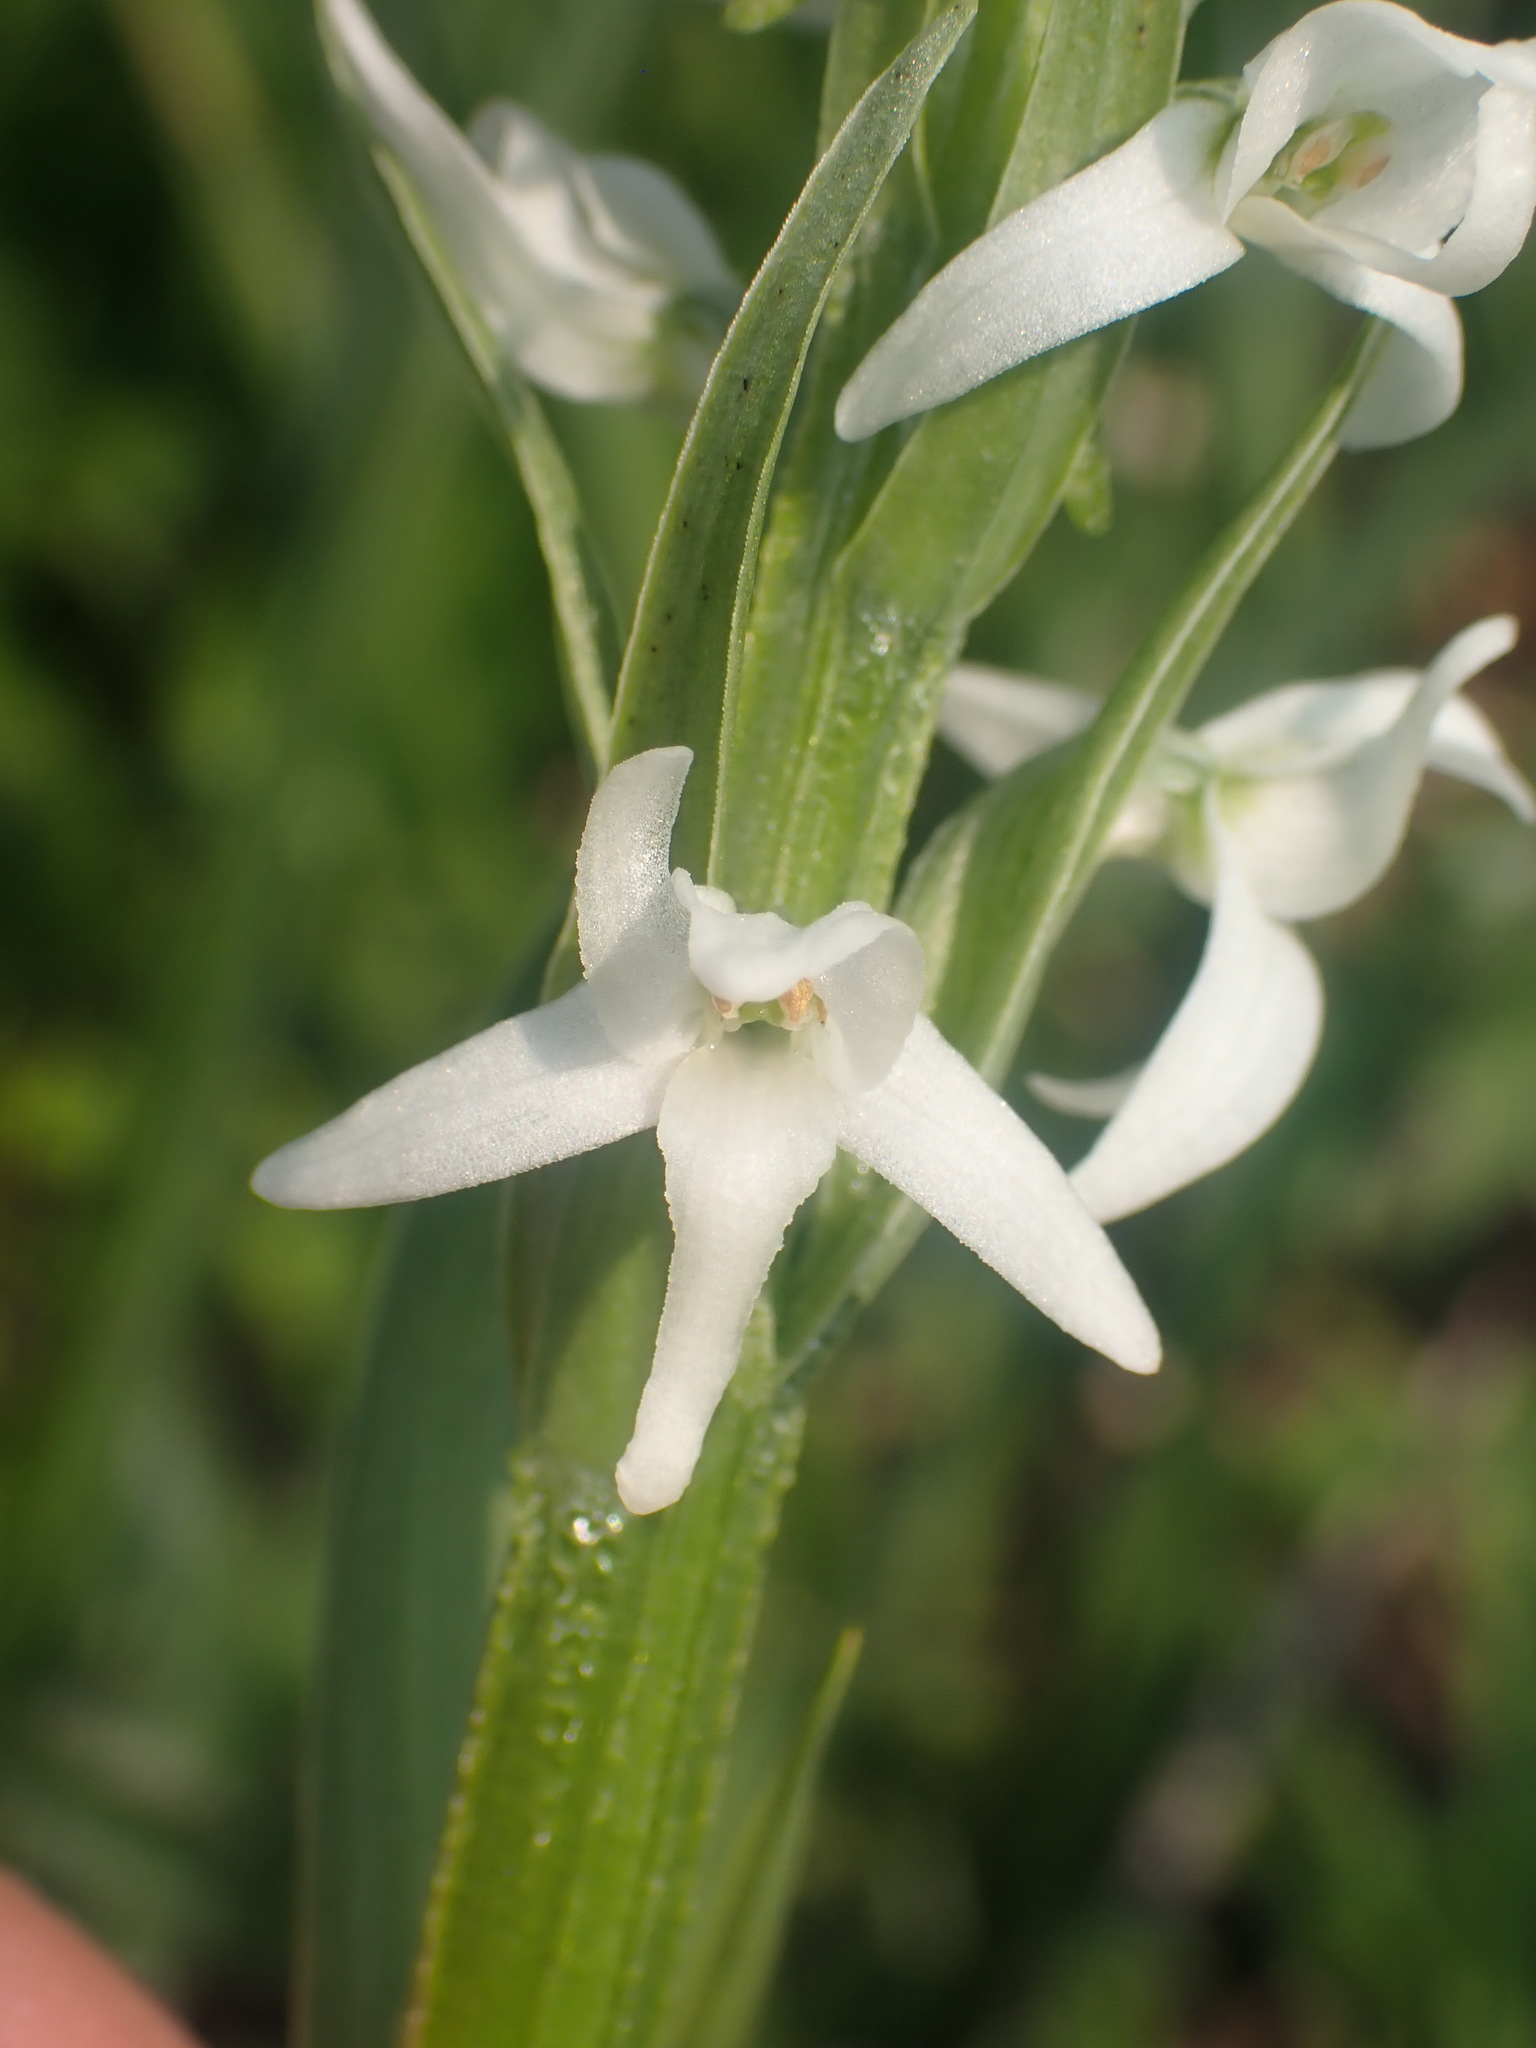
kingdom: Plantae
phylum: Tracheophyta
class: Liliopsida
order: Asparagales
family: Orchidaceae
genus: Platanthera
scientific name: Platanthera dilatata
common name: Bog candles
